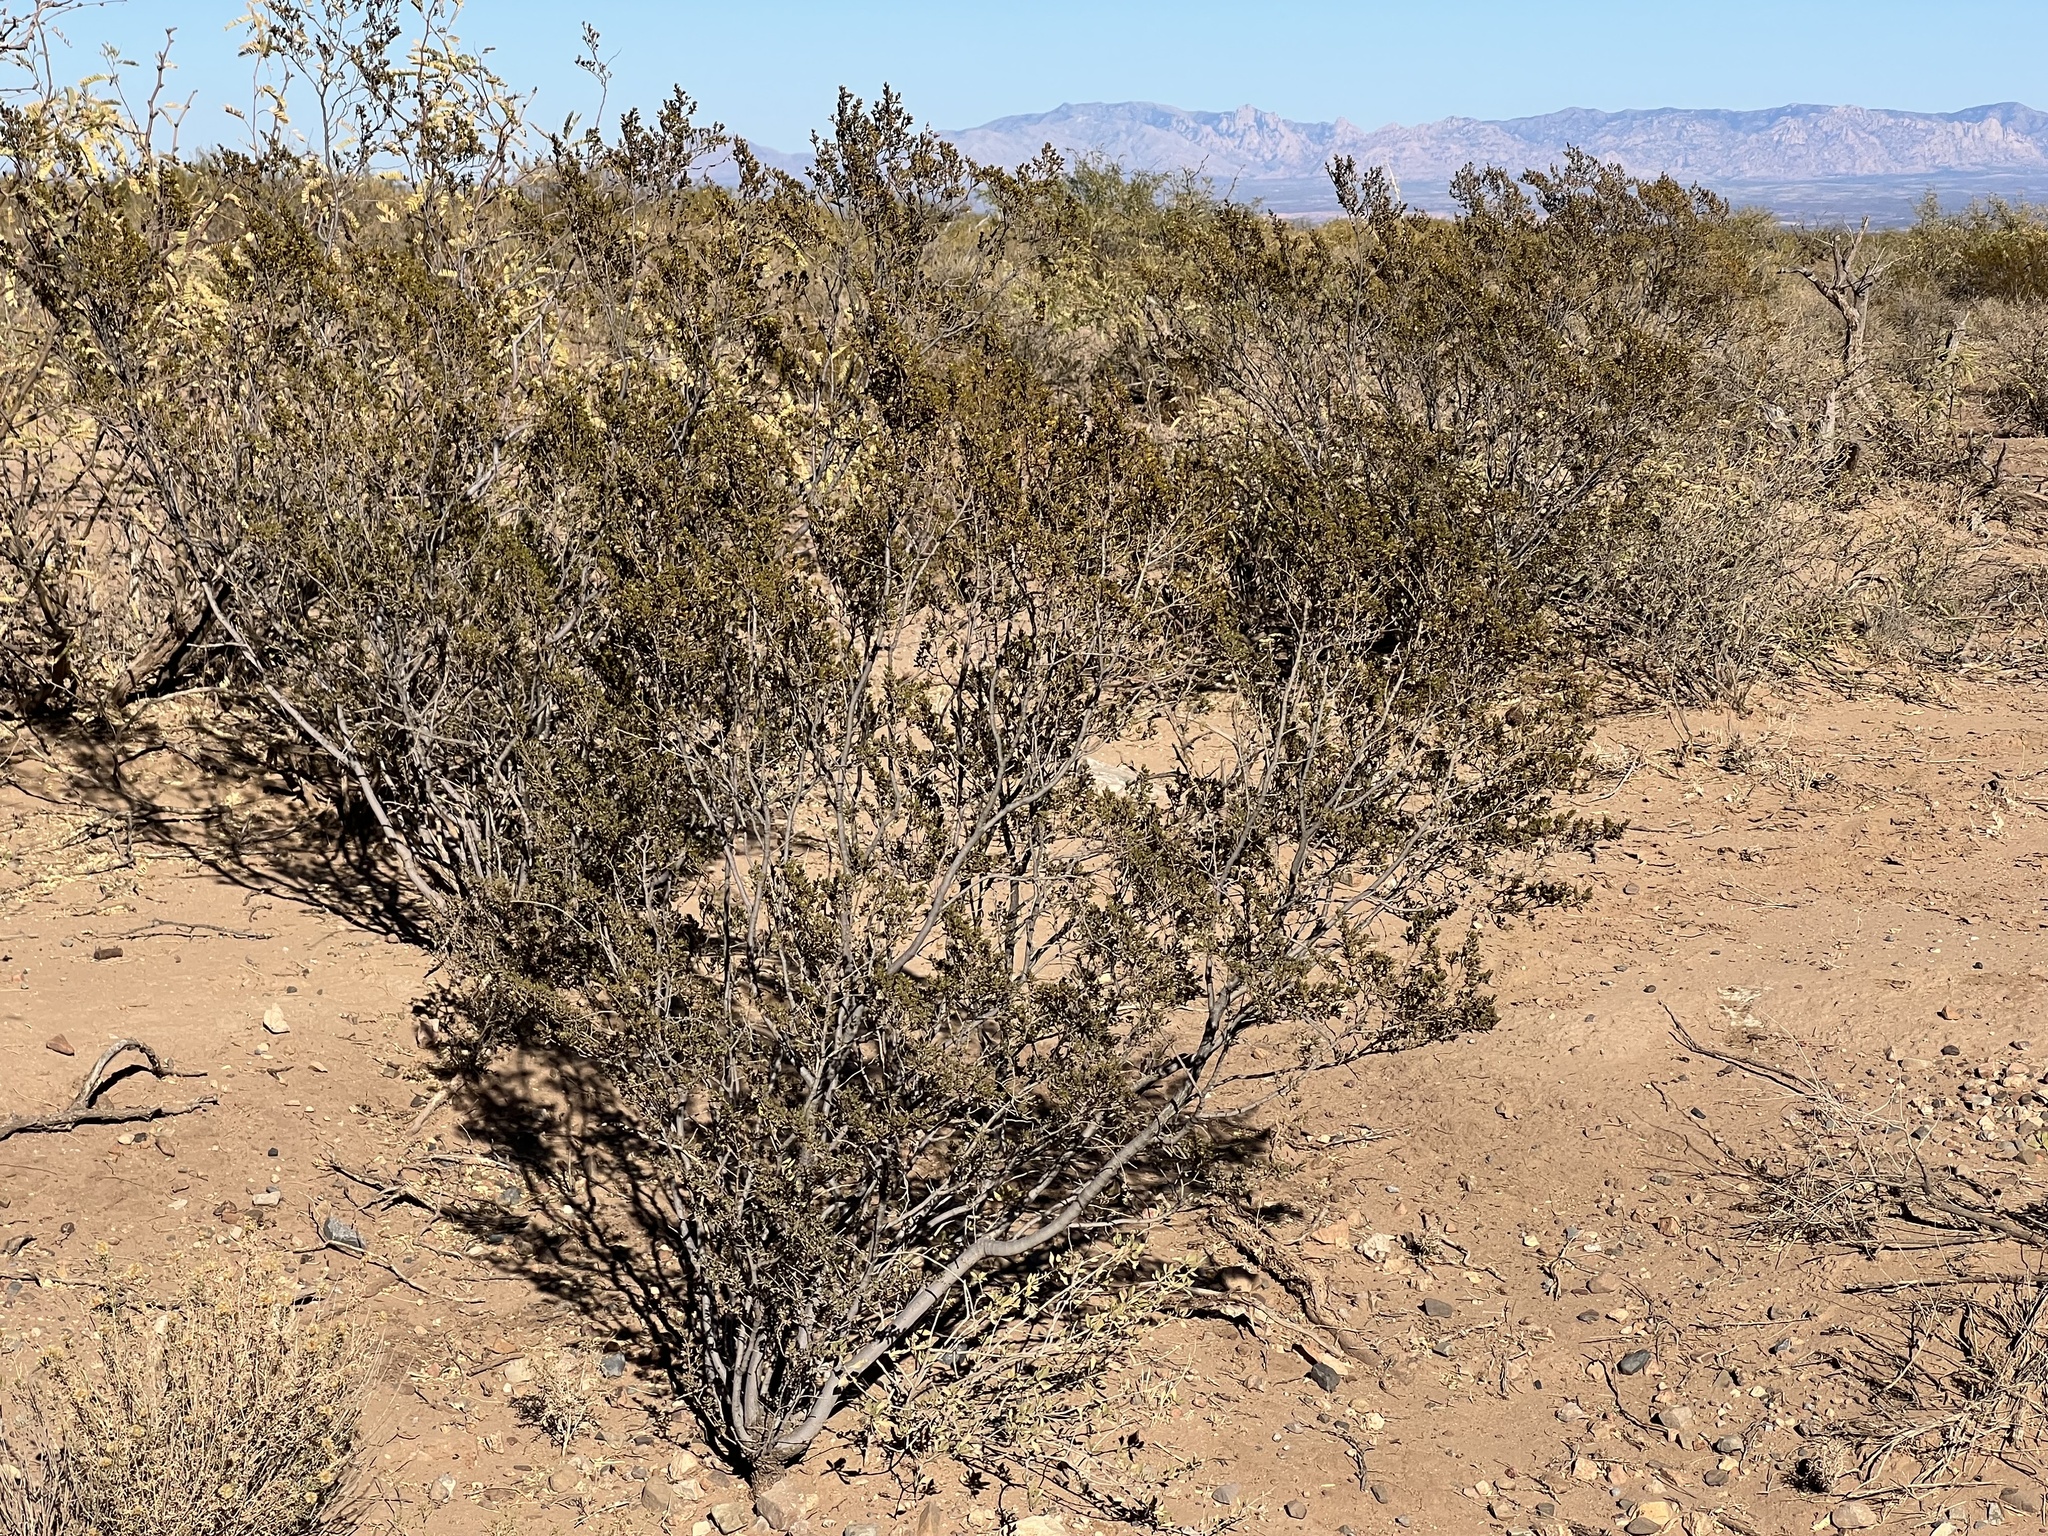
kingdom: Plantae
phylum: Tracheophyta
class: Magnoliopsida
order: Zygophyllales
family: Zygophyllaceae
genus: Larrea
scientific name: Larrea tridentata
